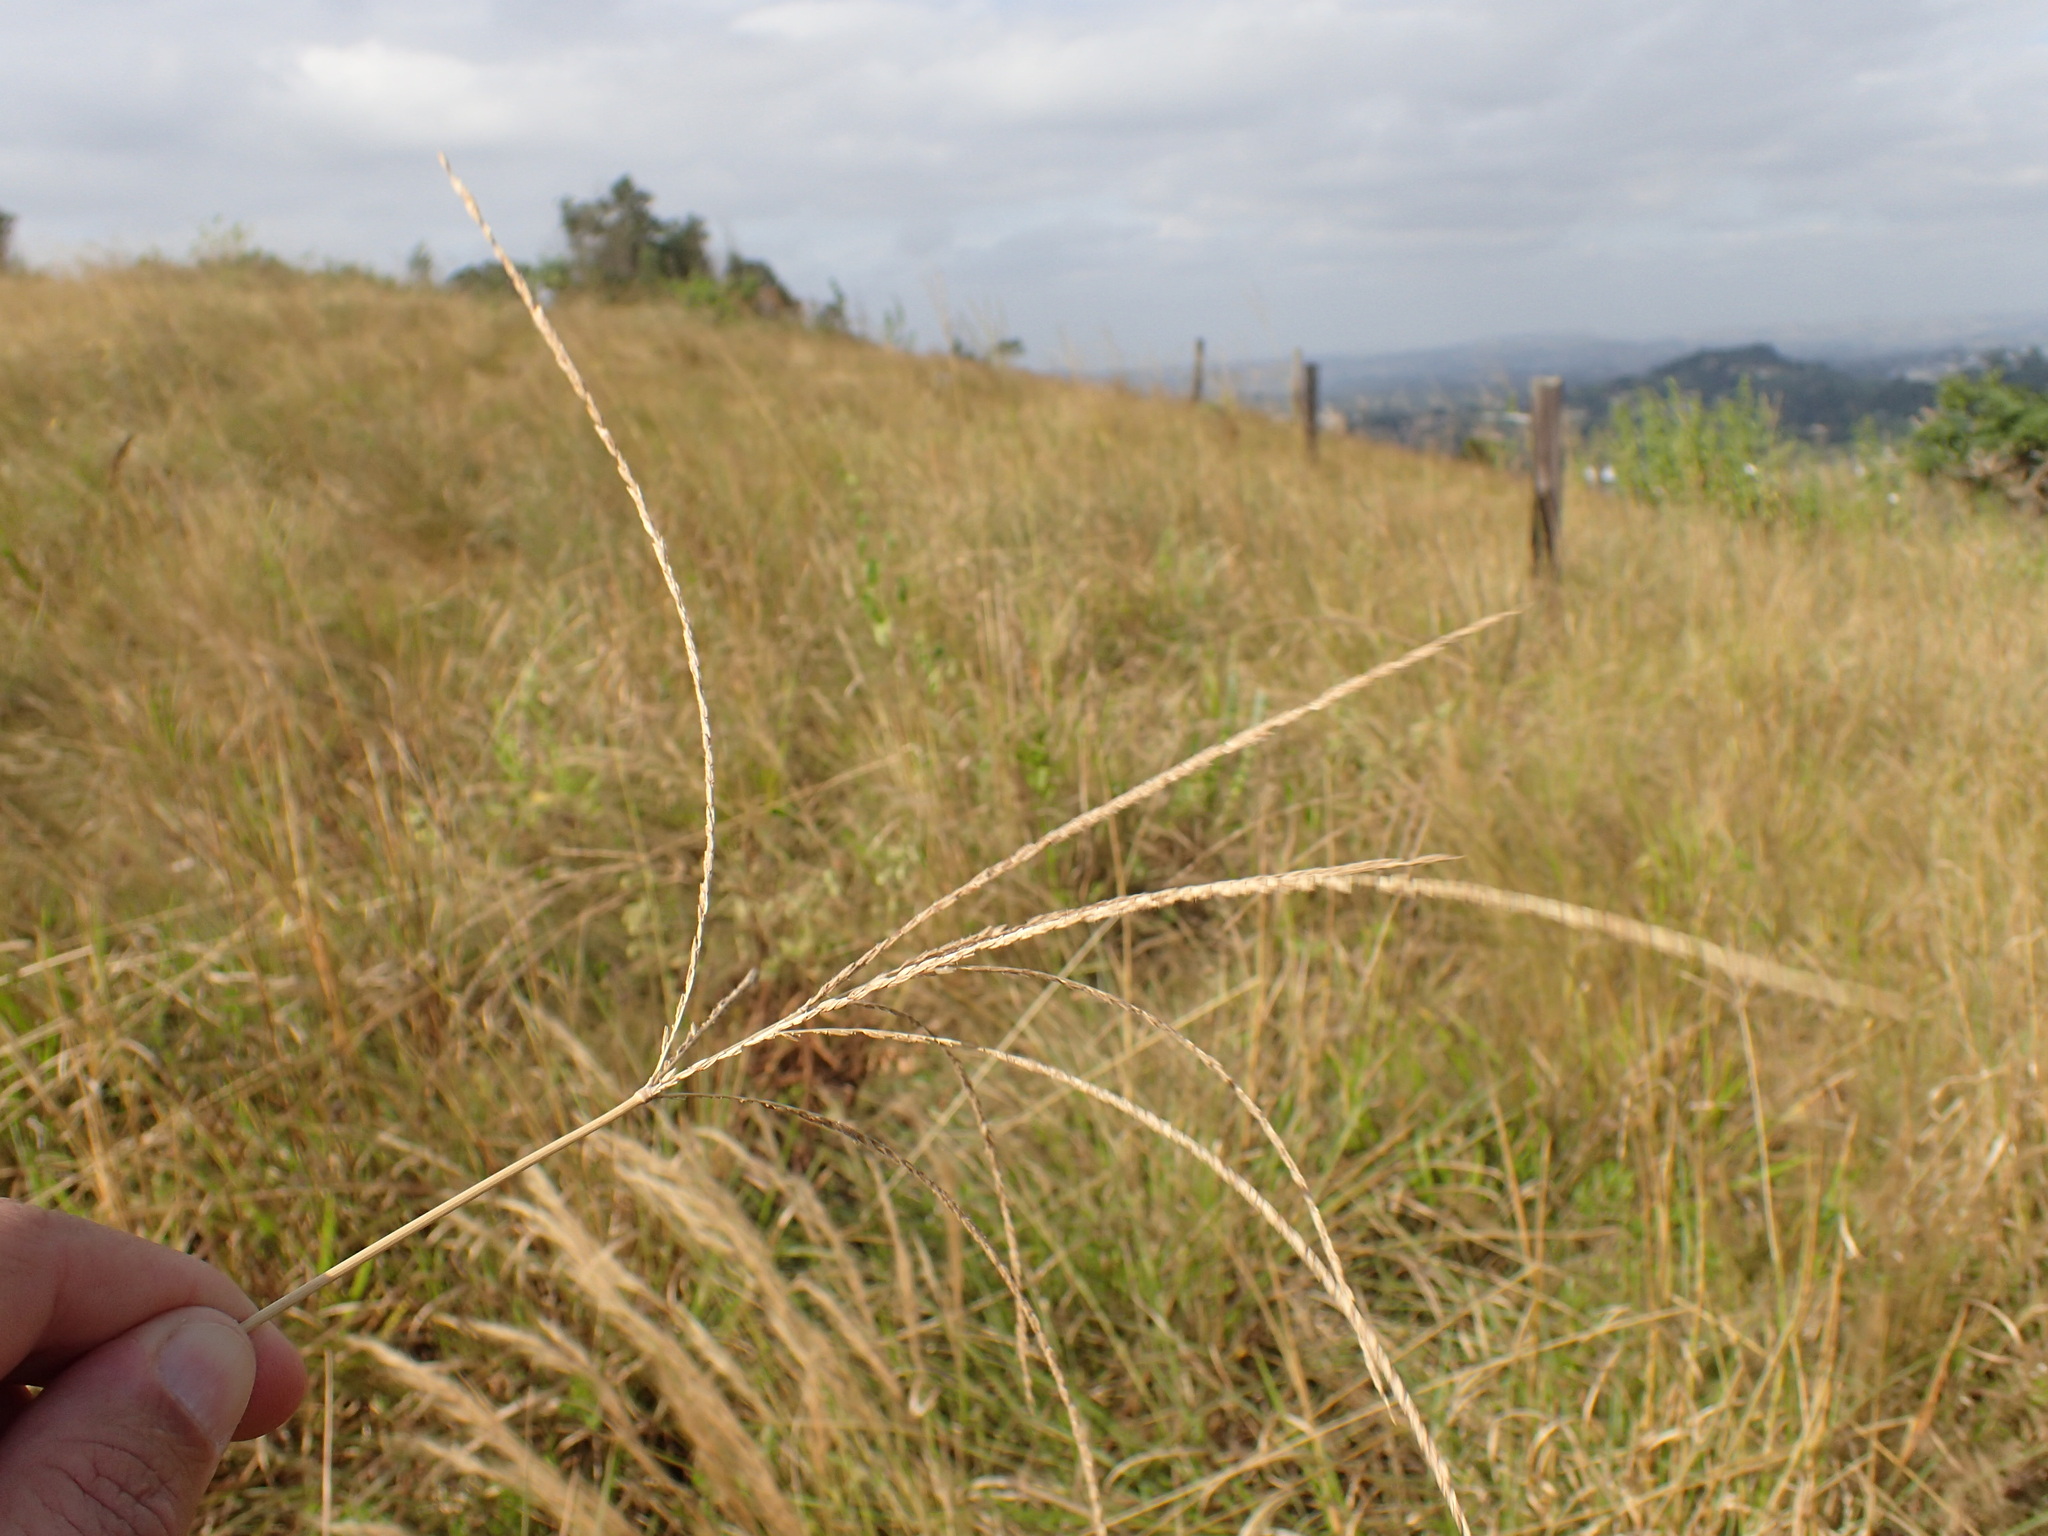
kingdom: Plantae
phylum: Tracheophyta
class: Liliopsida
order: Poales
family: Poaceae
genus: Digitaria
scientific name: Digitaria natalensis
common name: Coast finger grass
